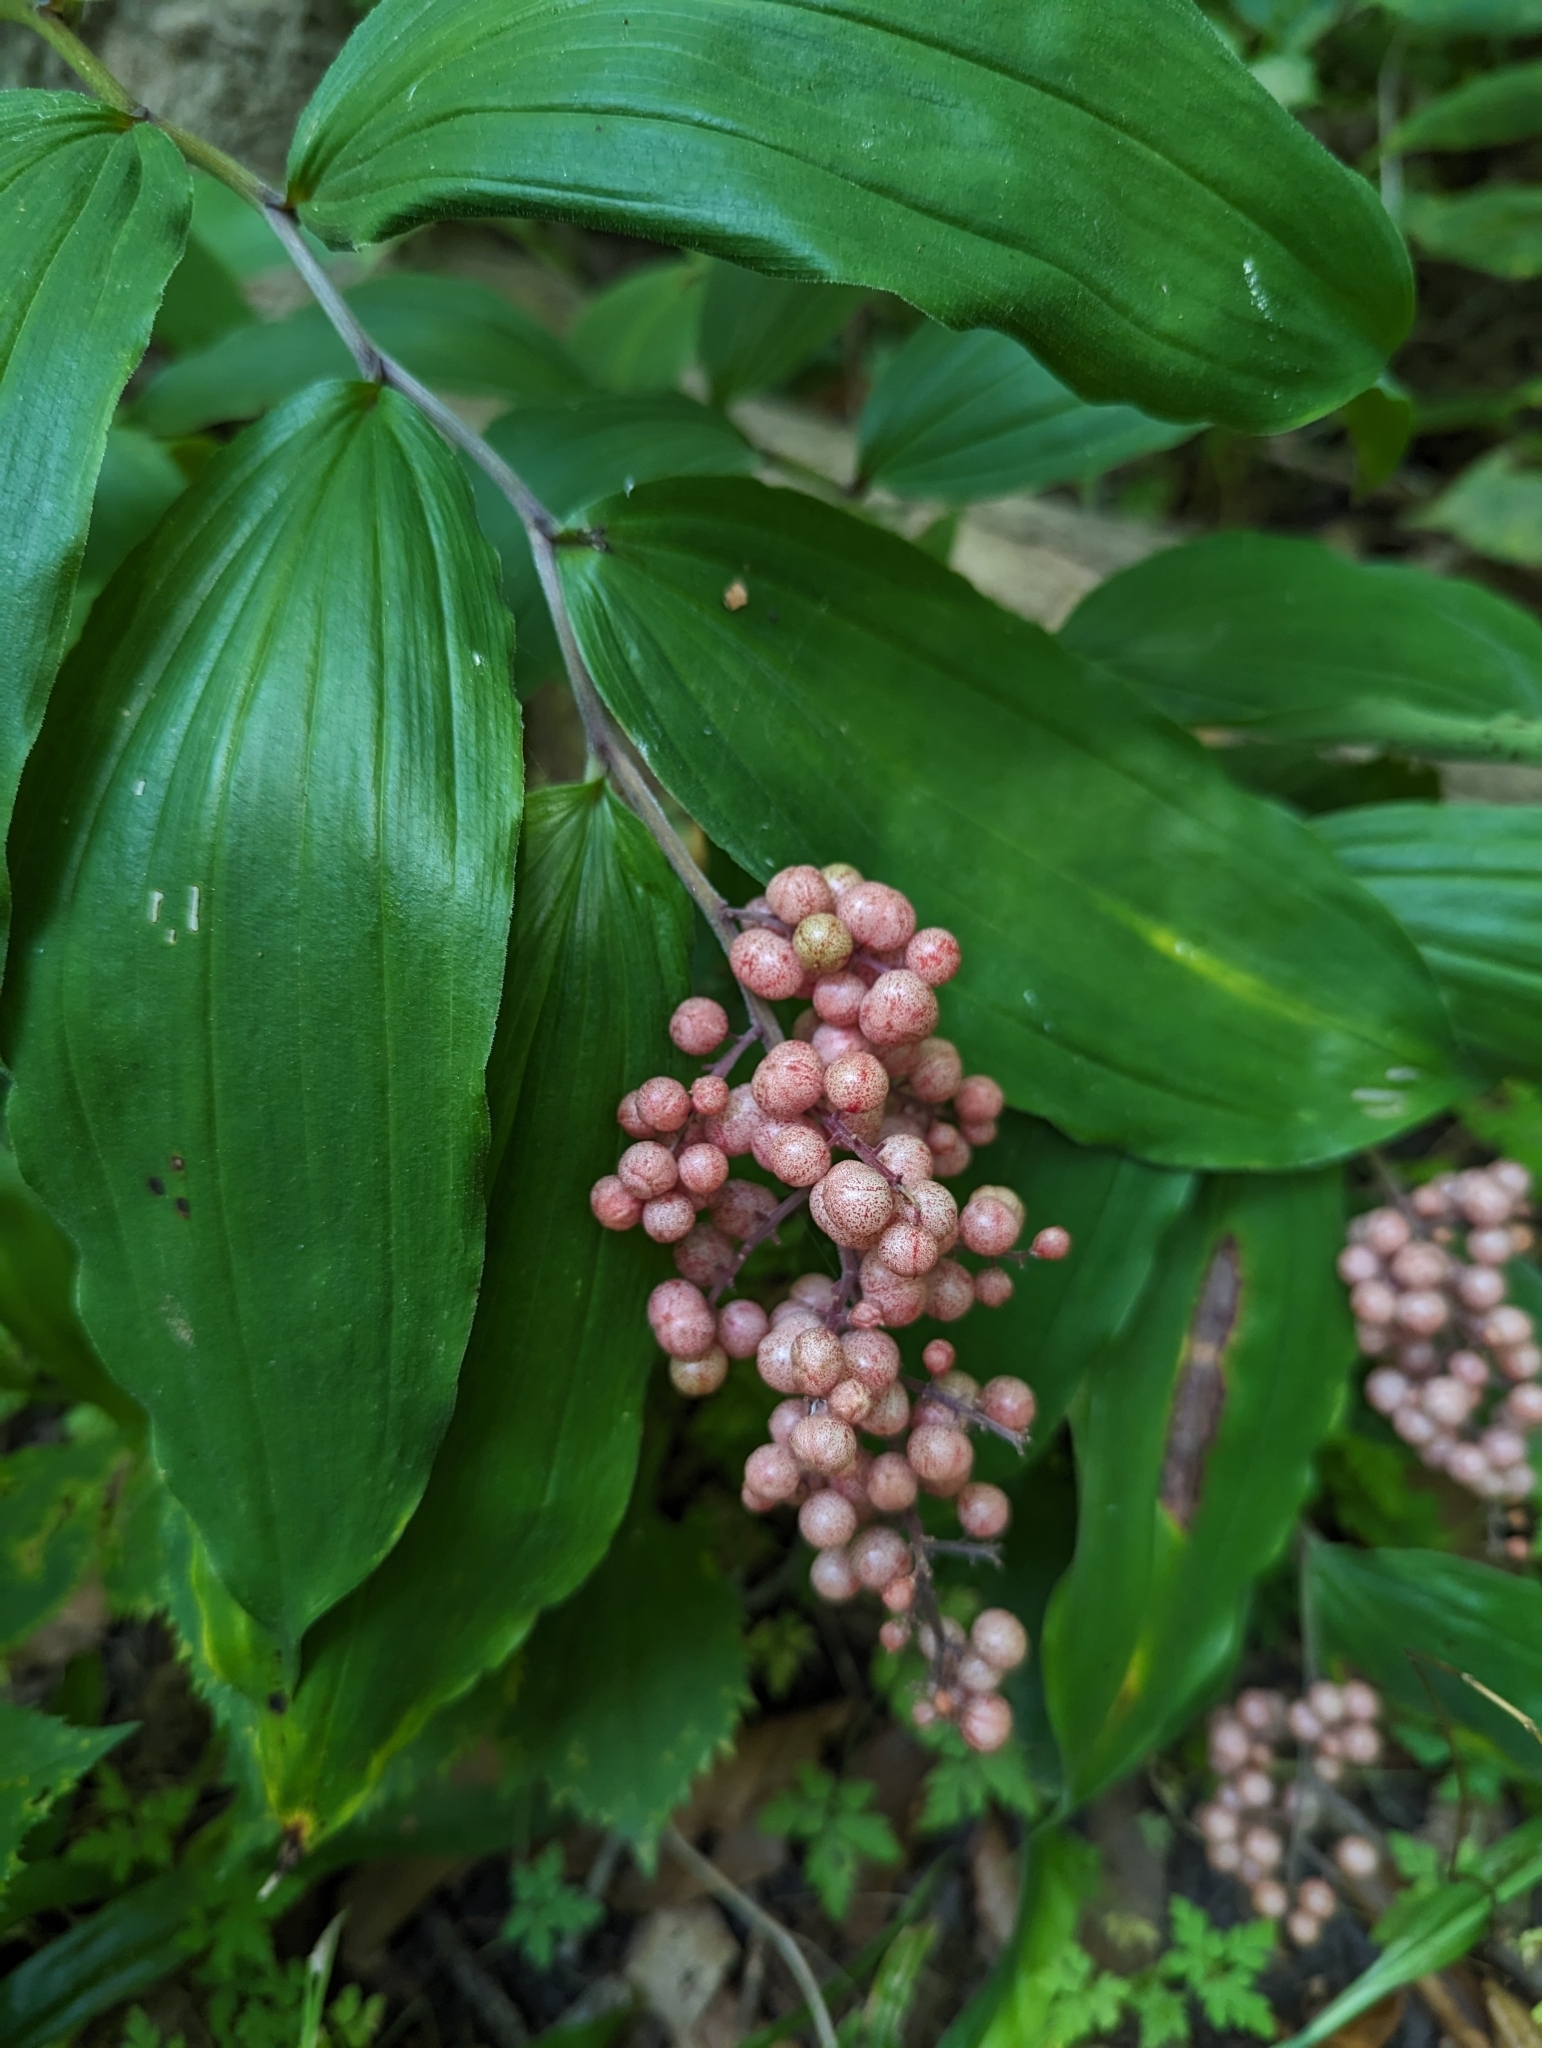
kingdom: Plantae
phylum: Tracheophyta
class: Liliopsida
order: Asparagales
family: Asparagaceae
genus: Maianthemum
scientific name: Maianthemum racemosum
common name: False spikenard
